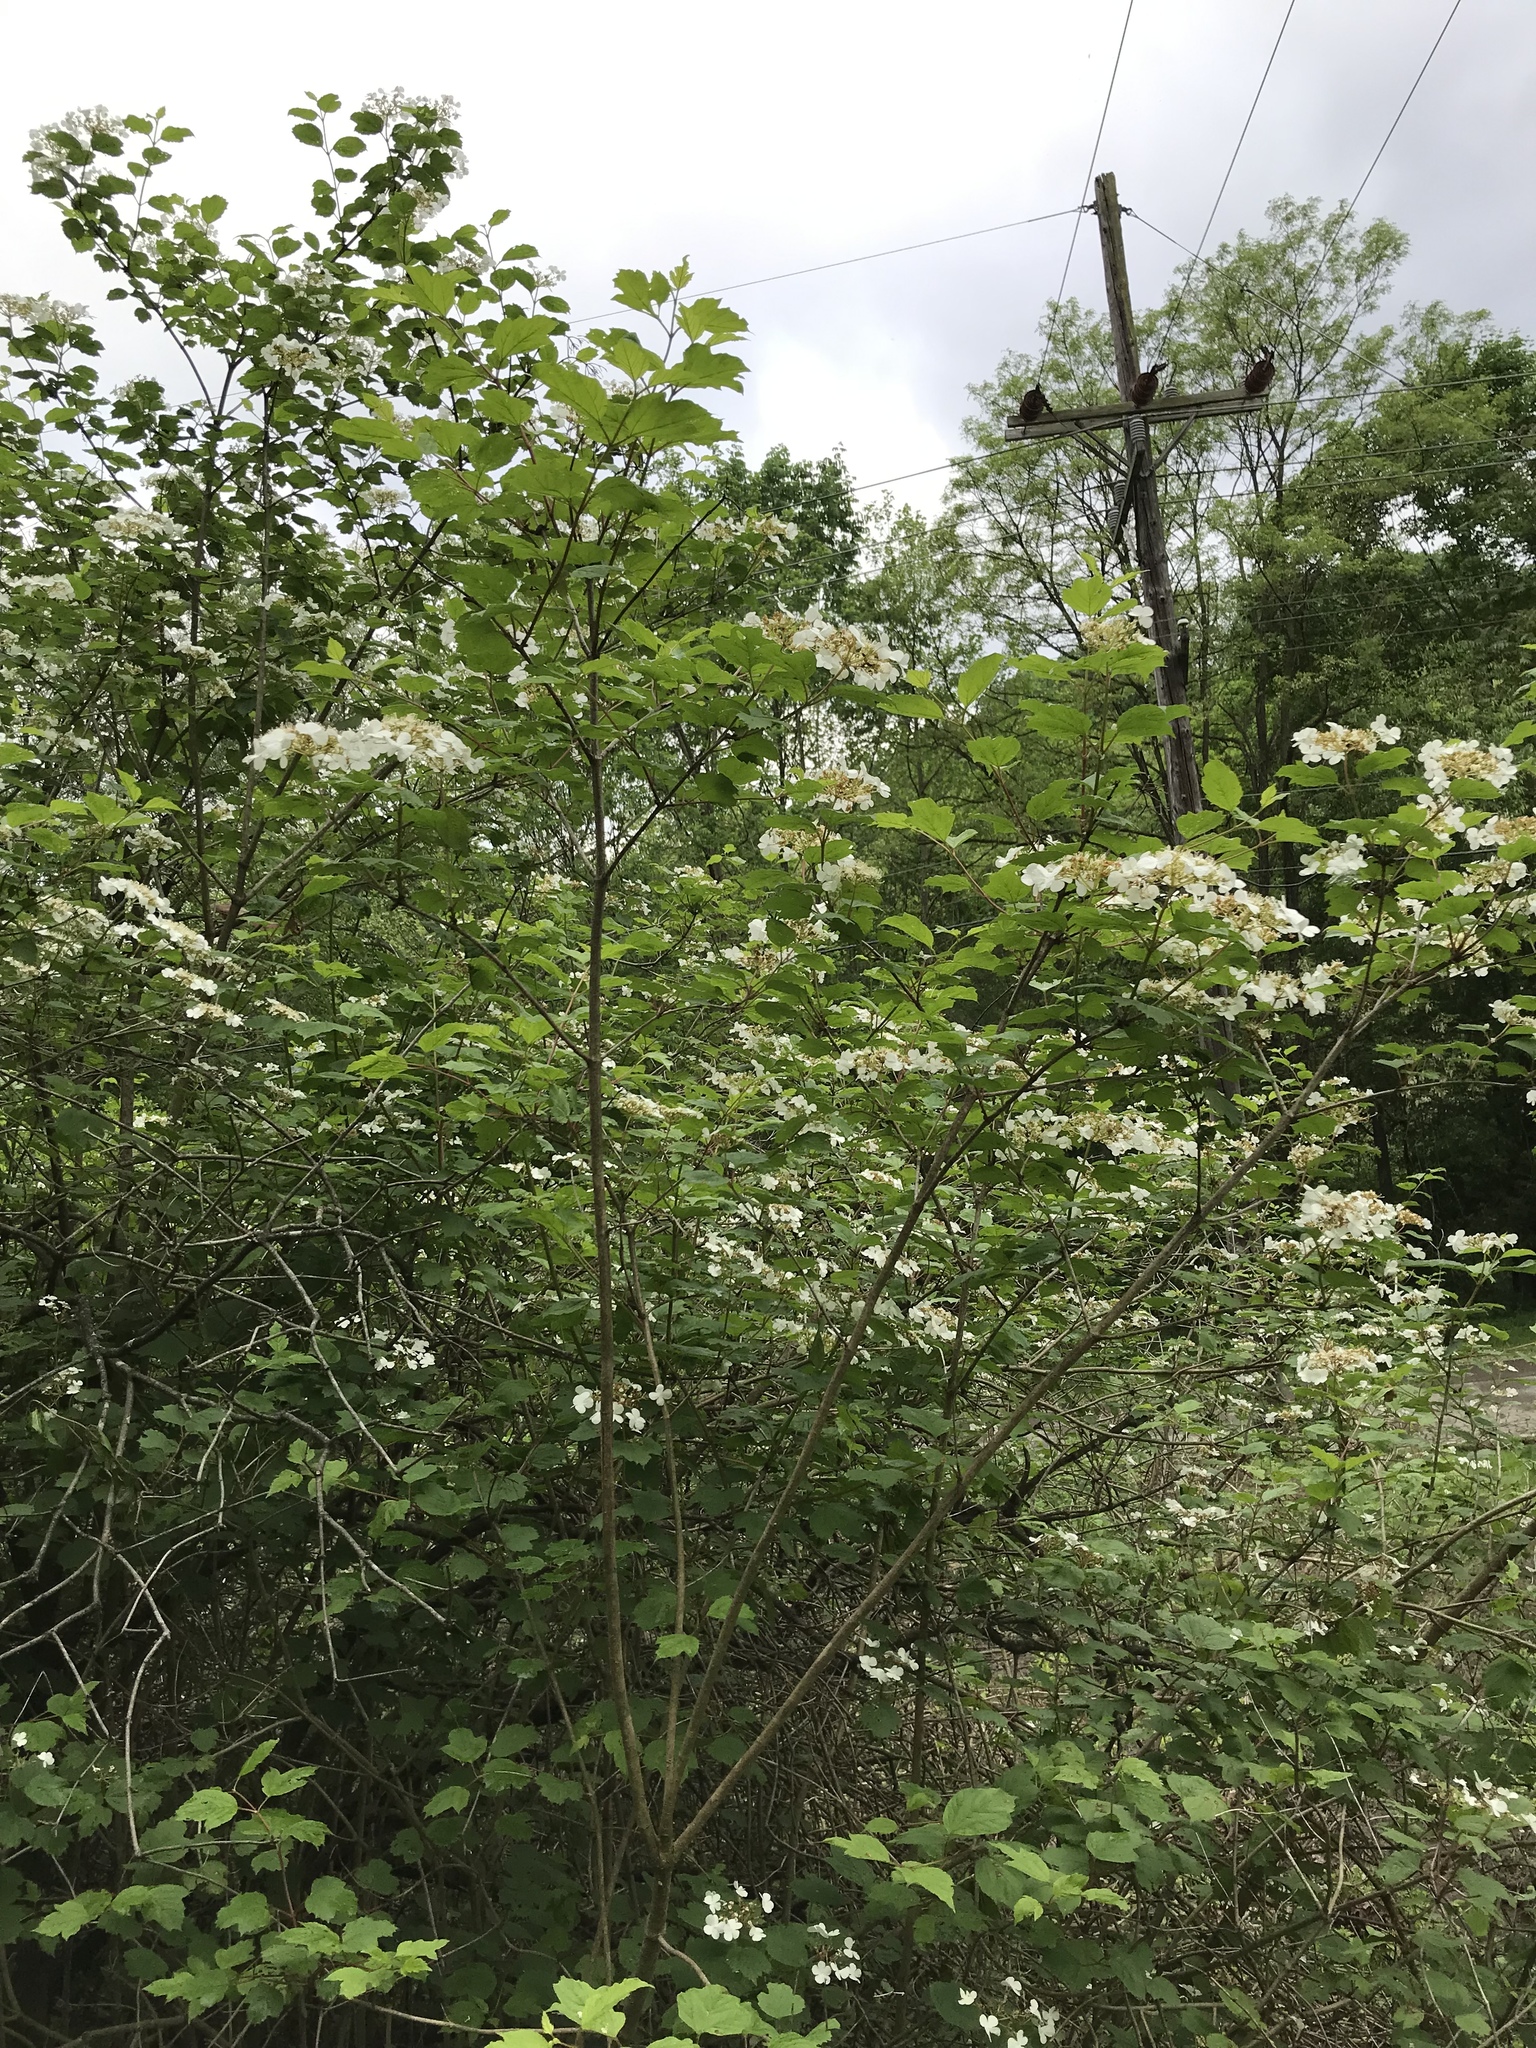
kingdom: Plantae
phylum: Tracheophyta
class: Magnoliopsida
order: Dipsacales
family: Viburnaceae
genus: Viburnum
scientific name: Viburnum opulus
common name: Guelder-rose
